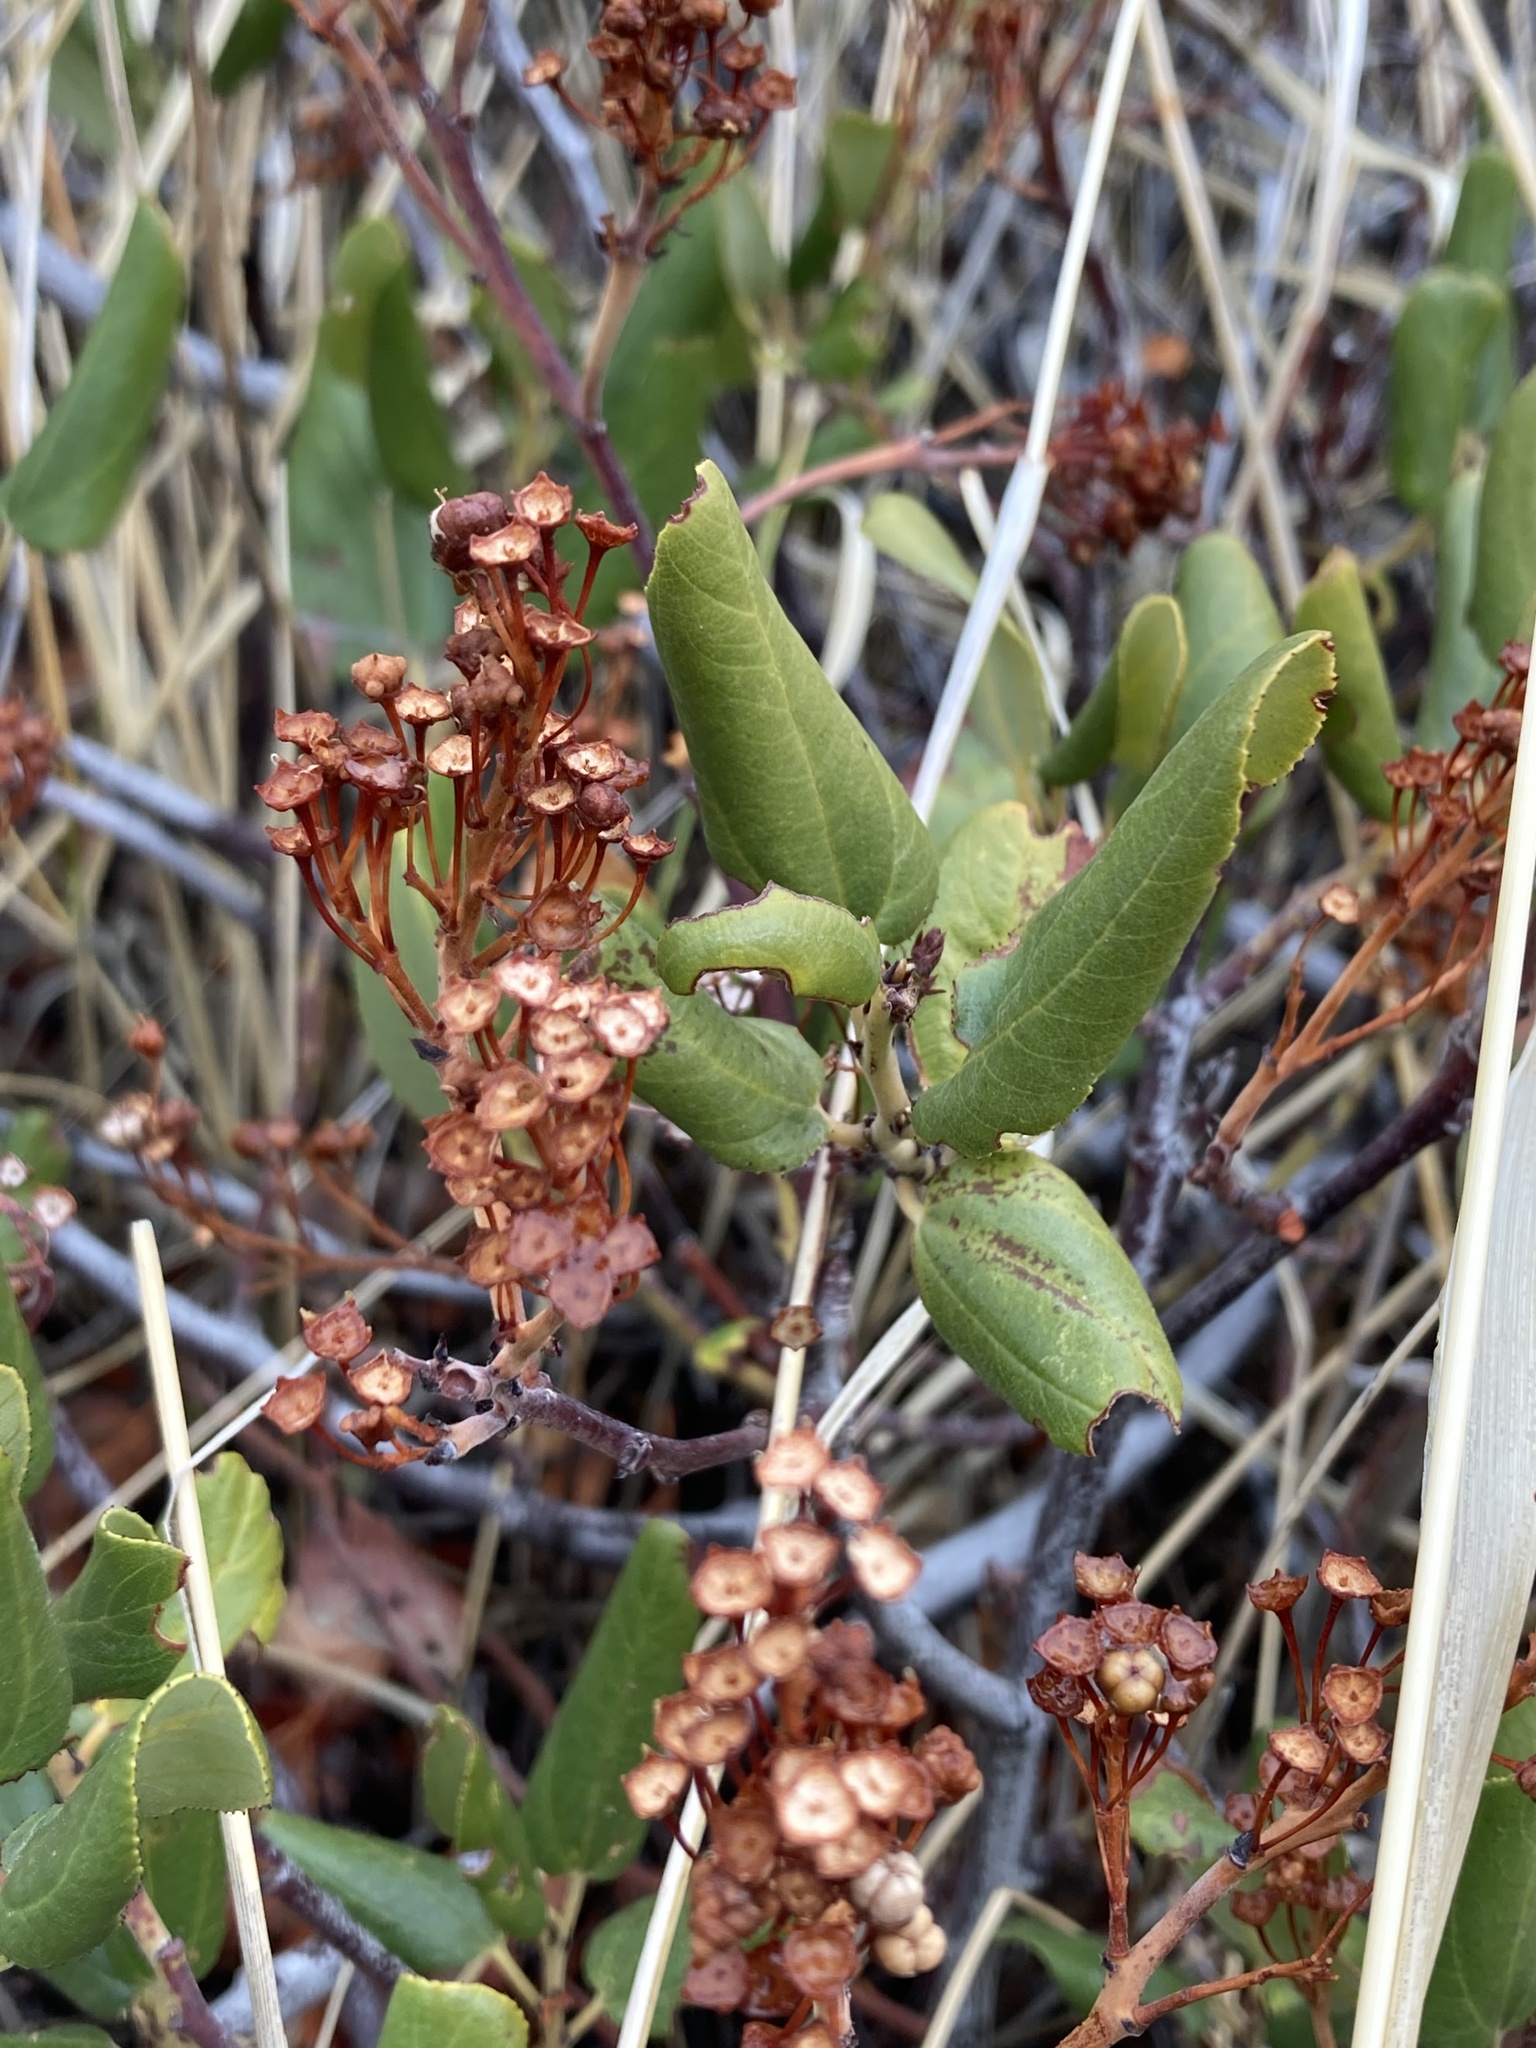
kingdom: Plantae
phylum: Tracheophyta
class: Magnoliopsida
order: Rosales
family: Rhamnaceae
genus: Ceanothus
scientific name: Ceanothus velutinus
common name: Snowbrush
